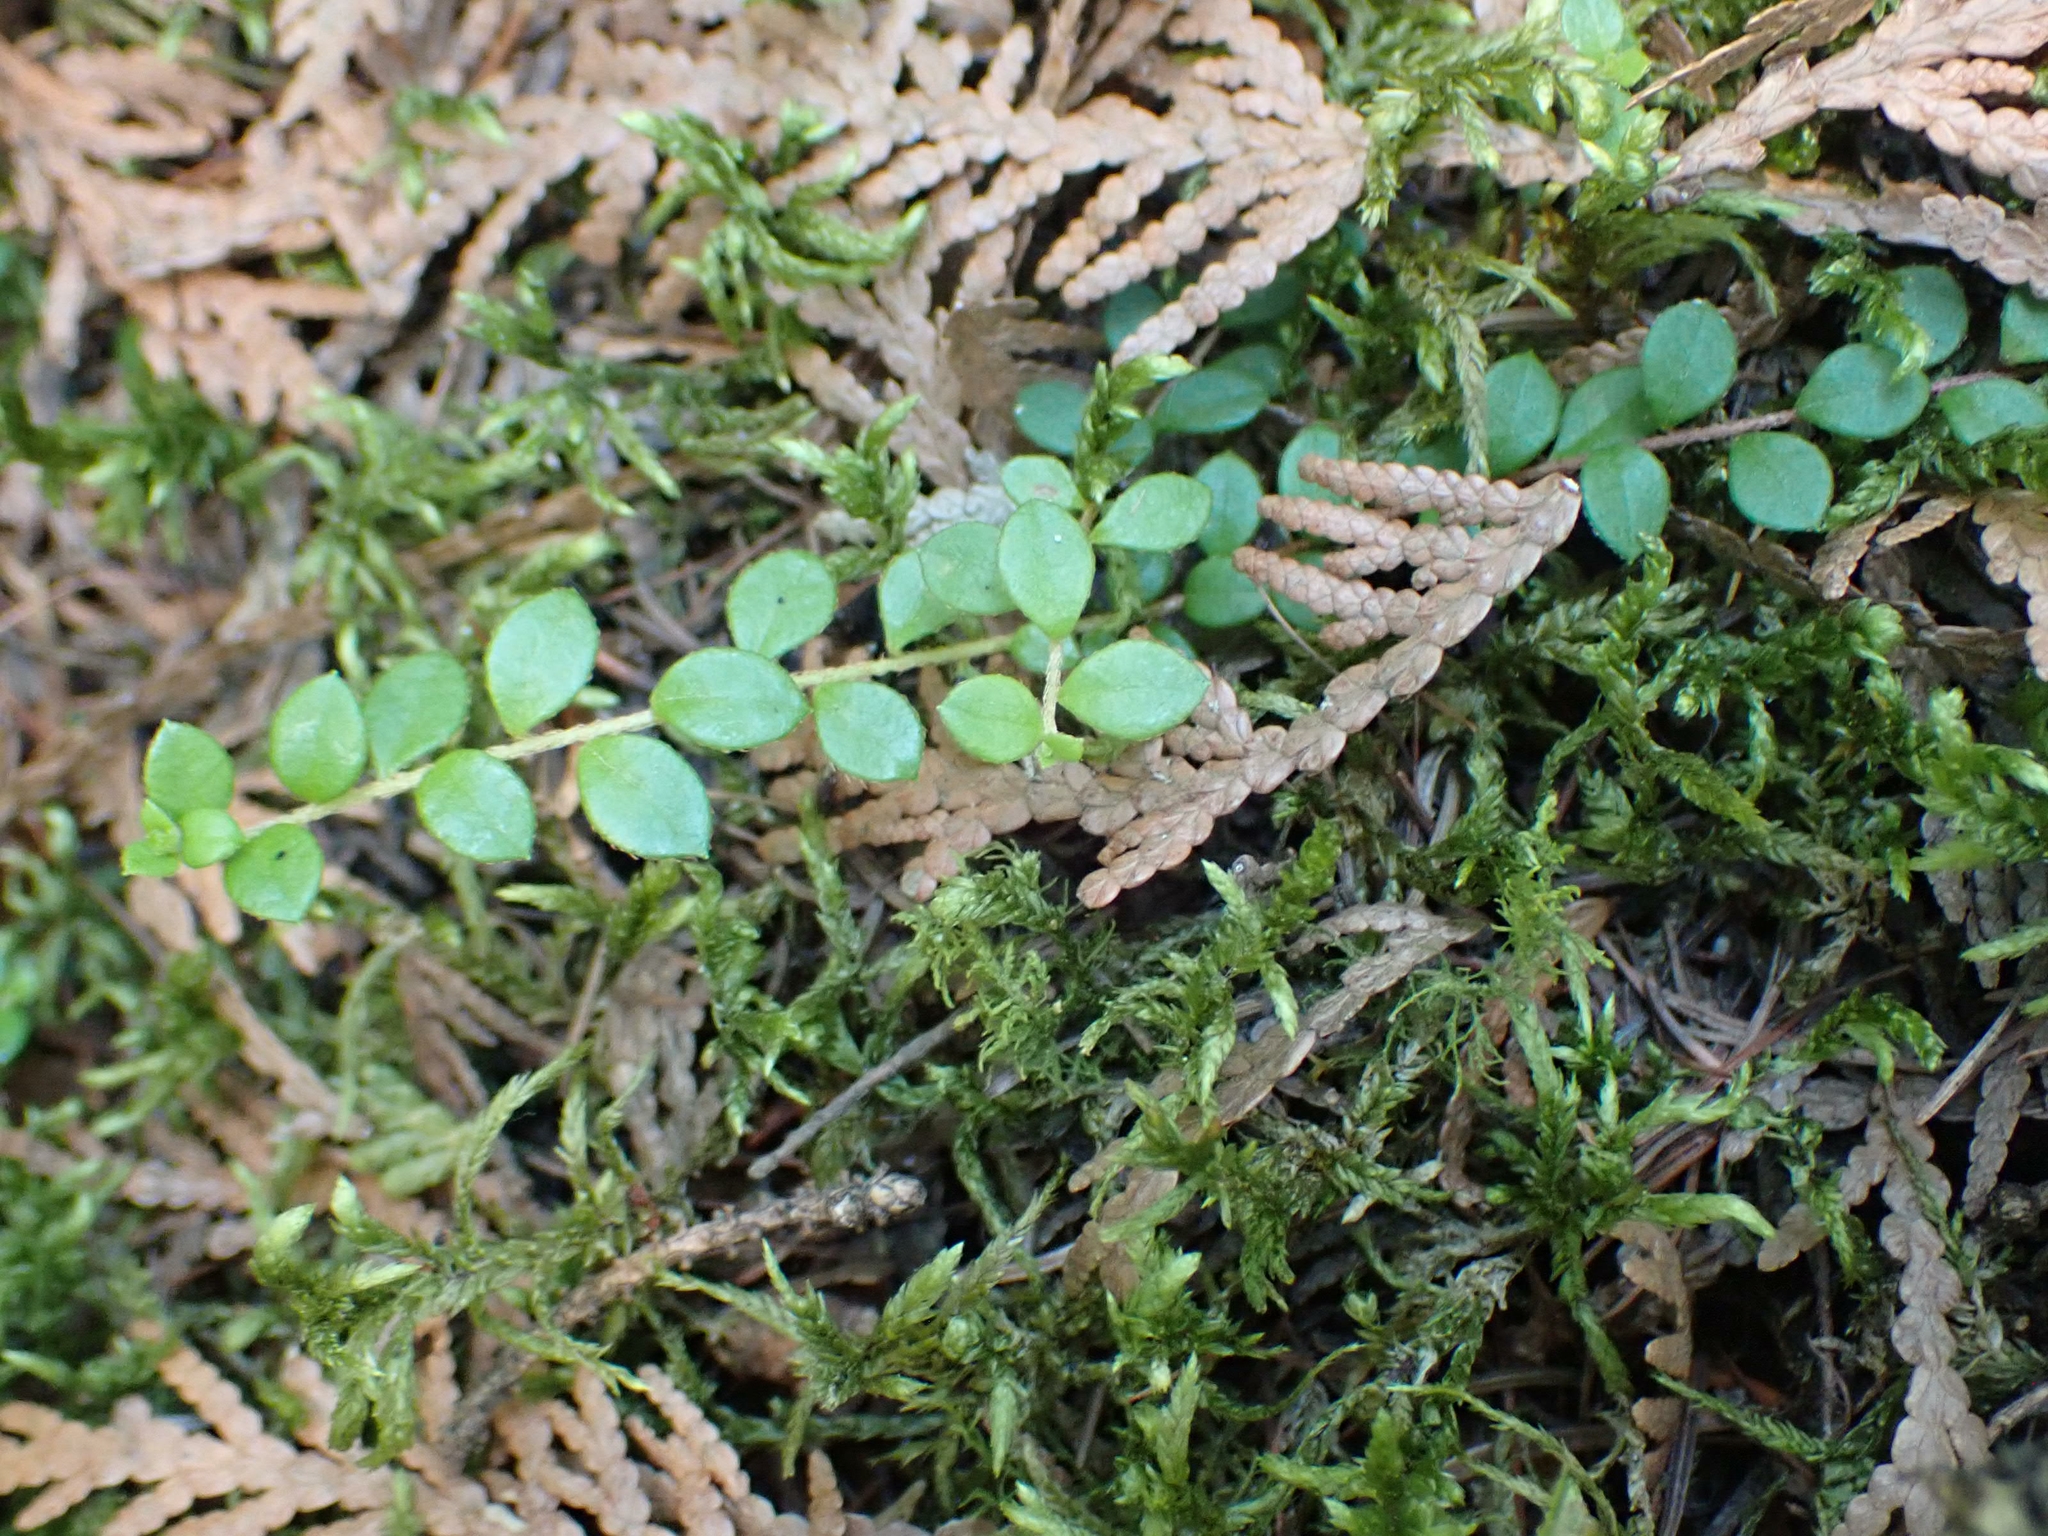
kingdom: Plantae
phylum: Tracheophyta
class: Magnoliopsida
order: Ericales
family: Ericaceae
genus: Gaultheria
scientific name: Gaultheria hispidula
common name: Cancer wintergreen
